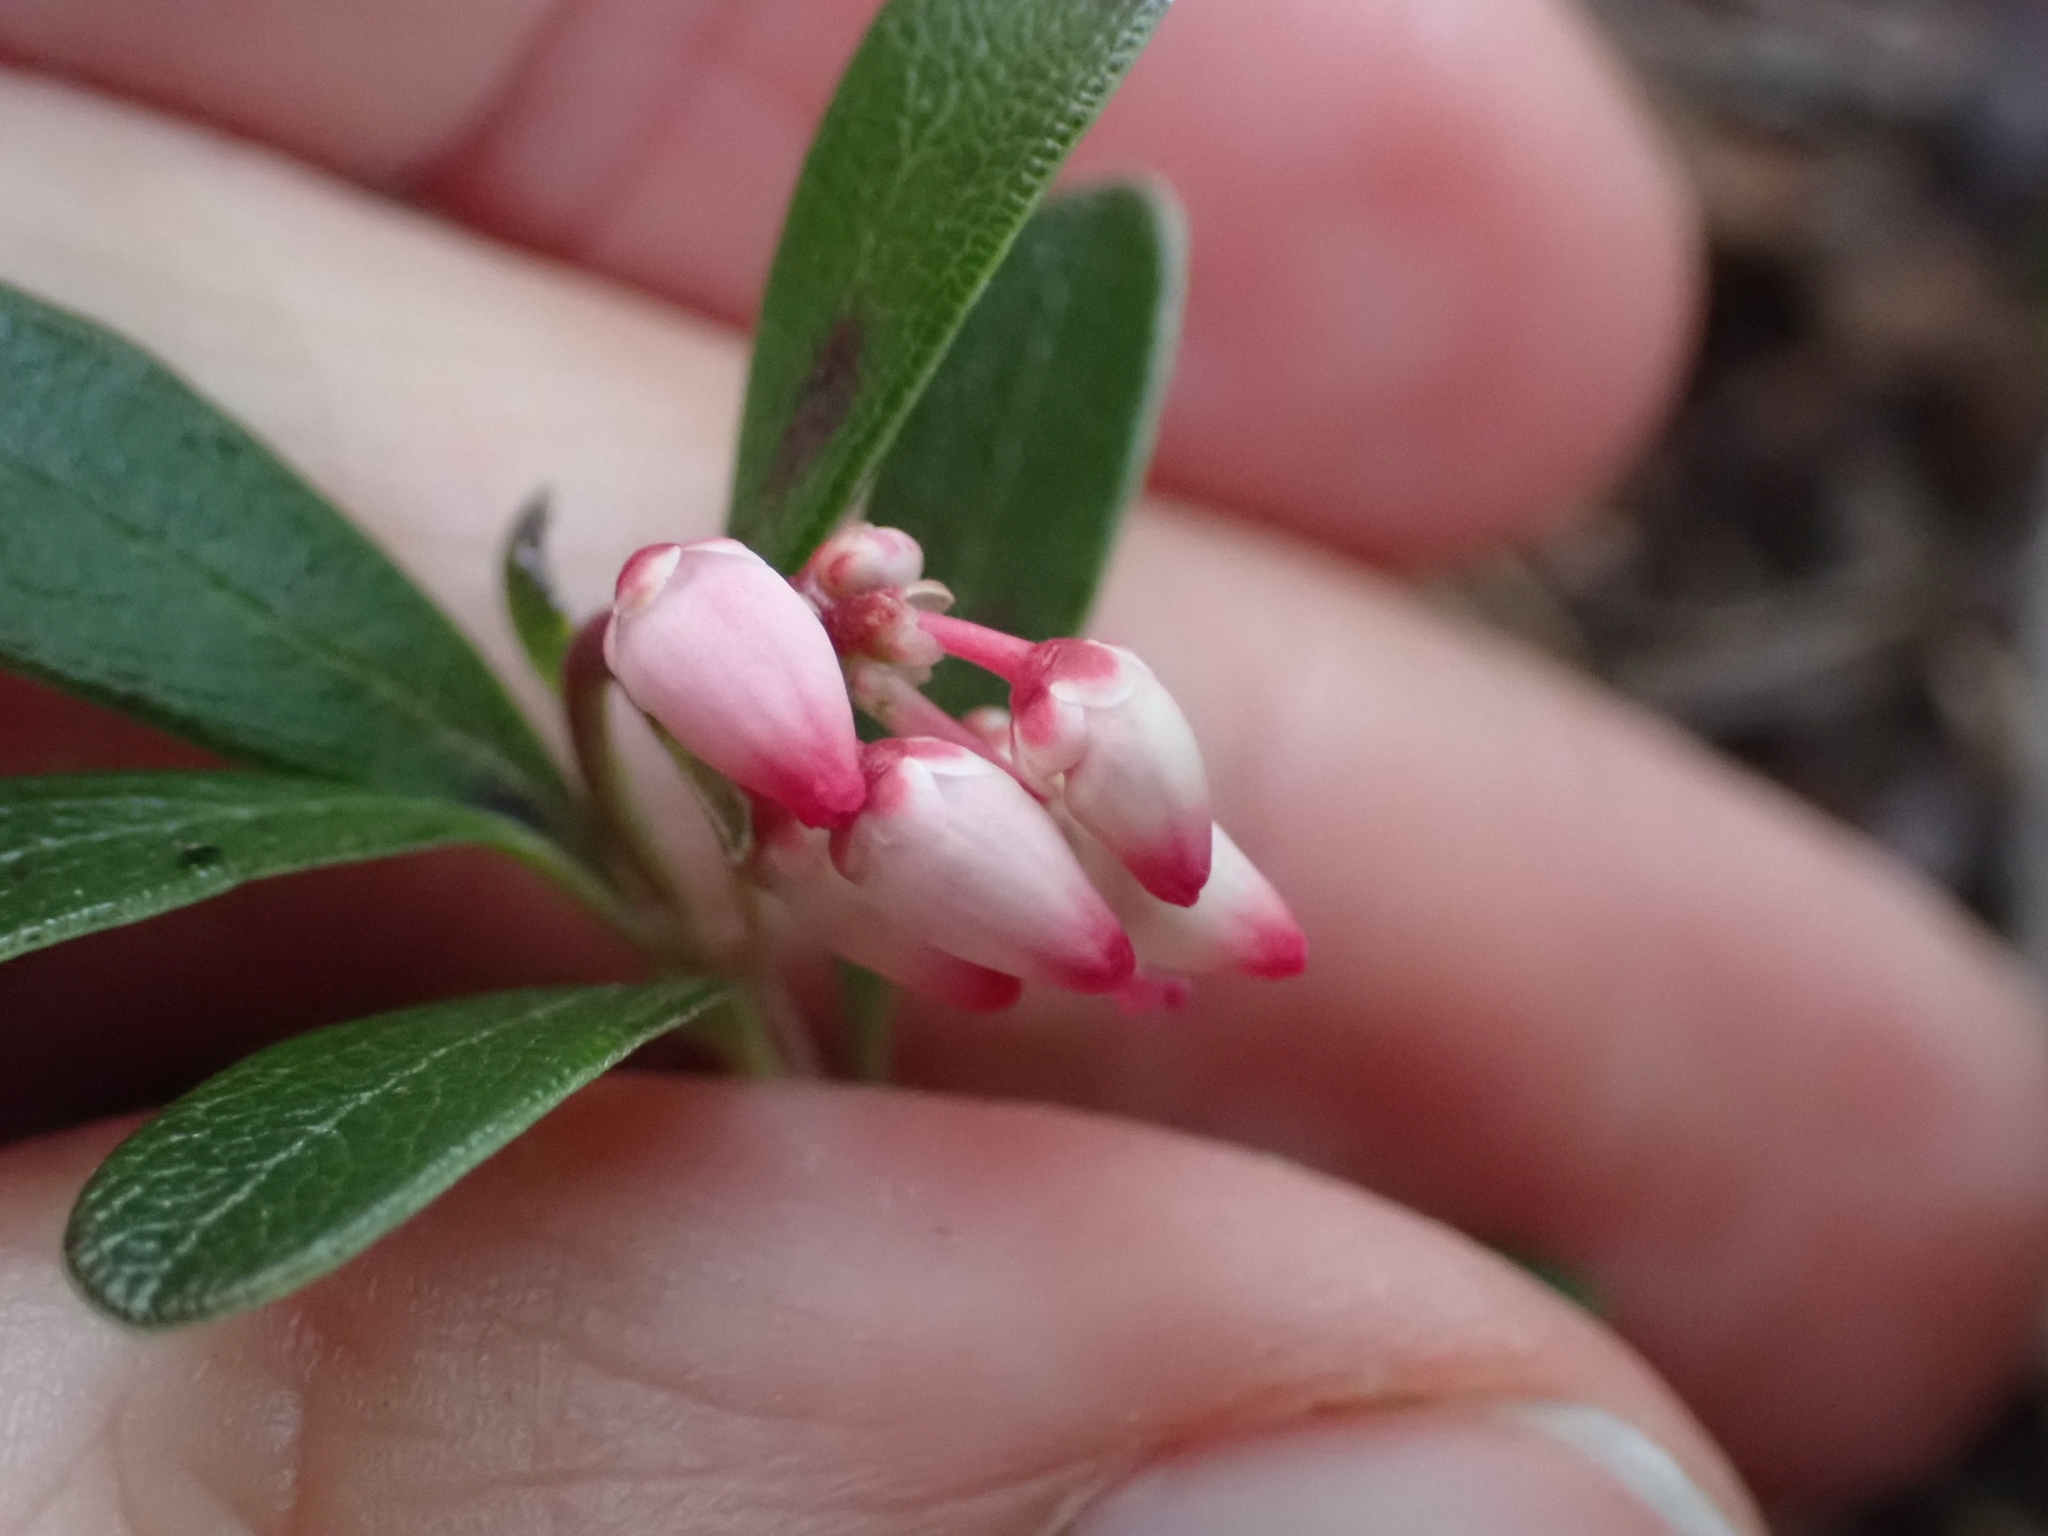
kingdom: Plantae
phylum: Tracheophyta
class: Magnoliopsida
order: Ericales
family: Ericaceae
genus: Arctostaphylos
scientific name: Arctostaphylos uva-ursi
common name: Bearberry
